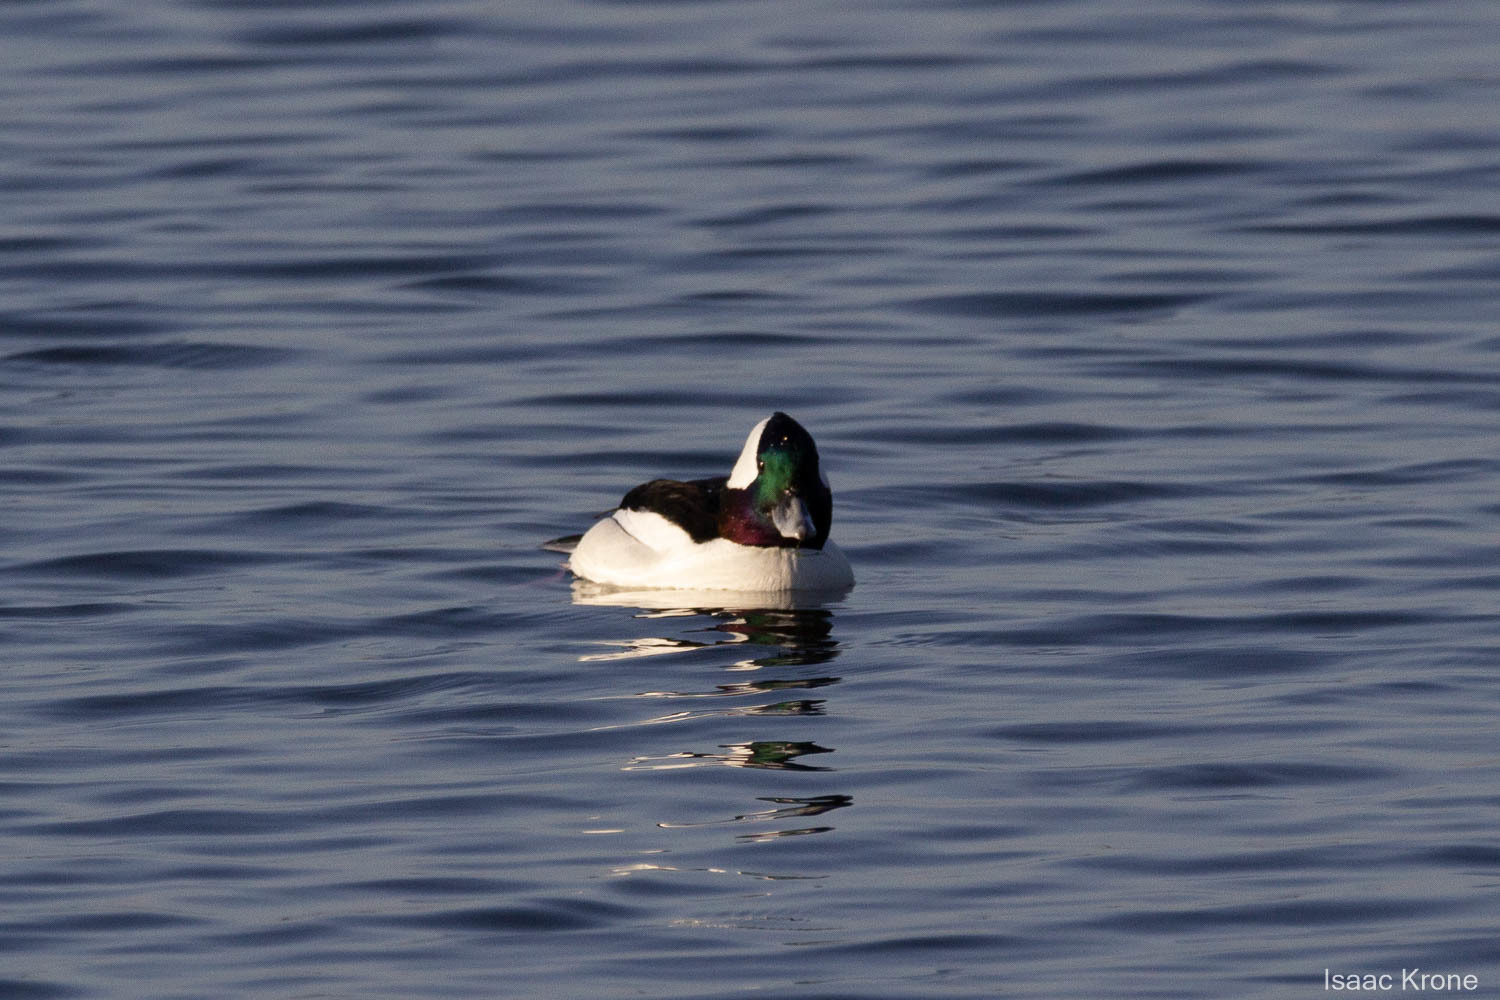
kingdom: Animalia
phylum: Chordata
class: Aves
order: Anseriformes
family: Anatidae
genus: Bucephala
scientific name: Bucephala albeola
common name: Bufflehead
